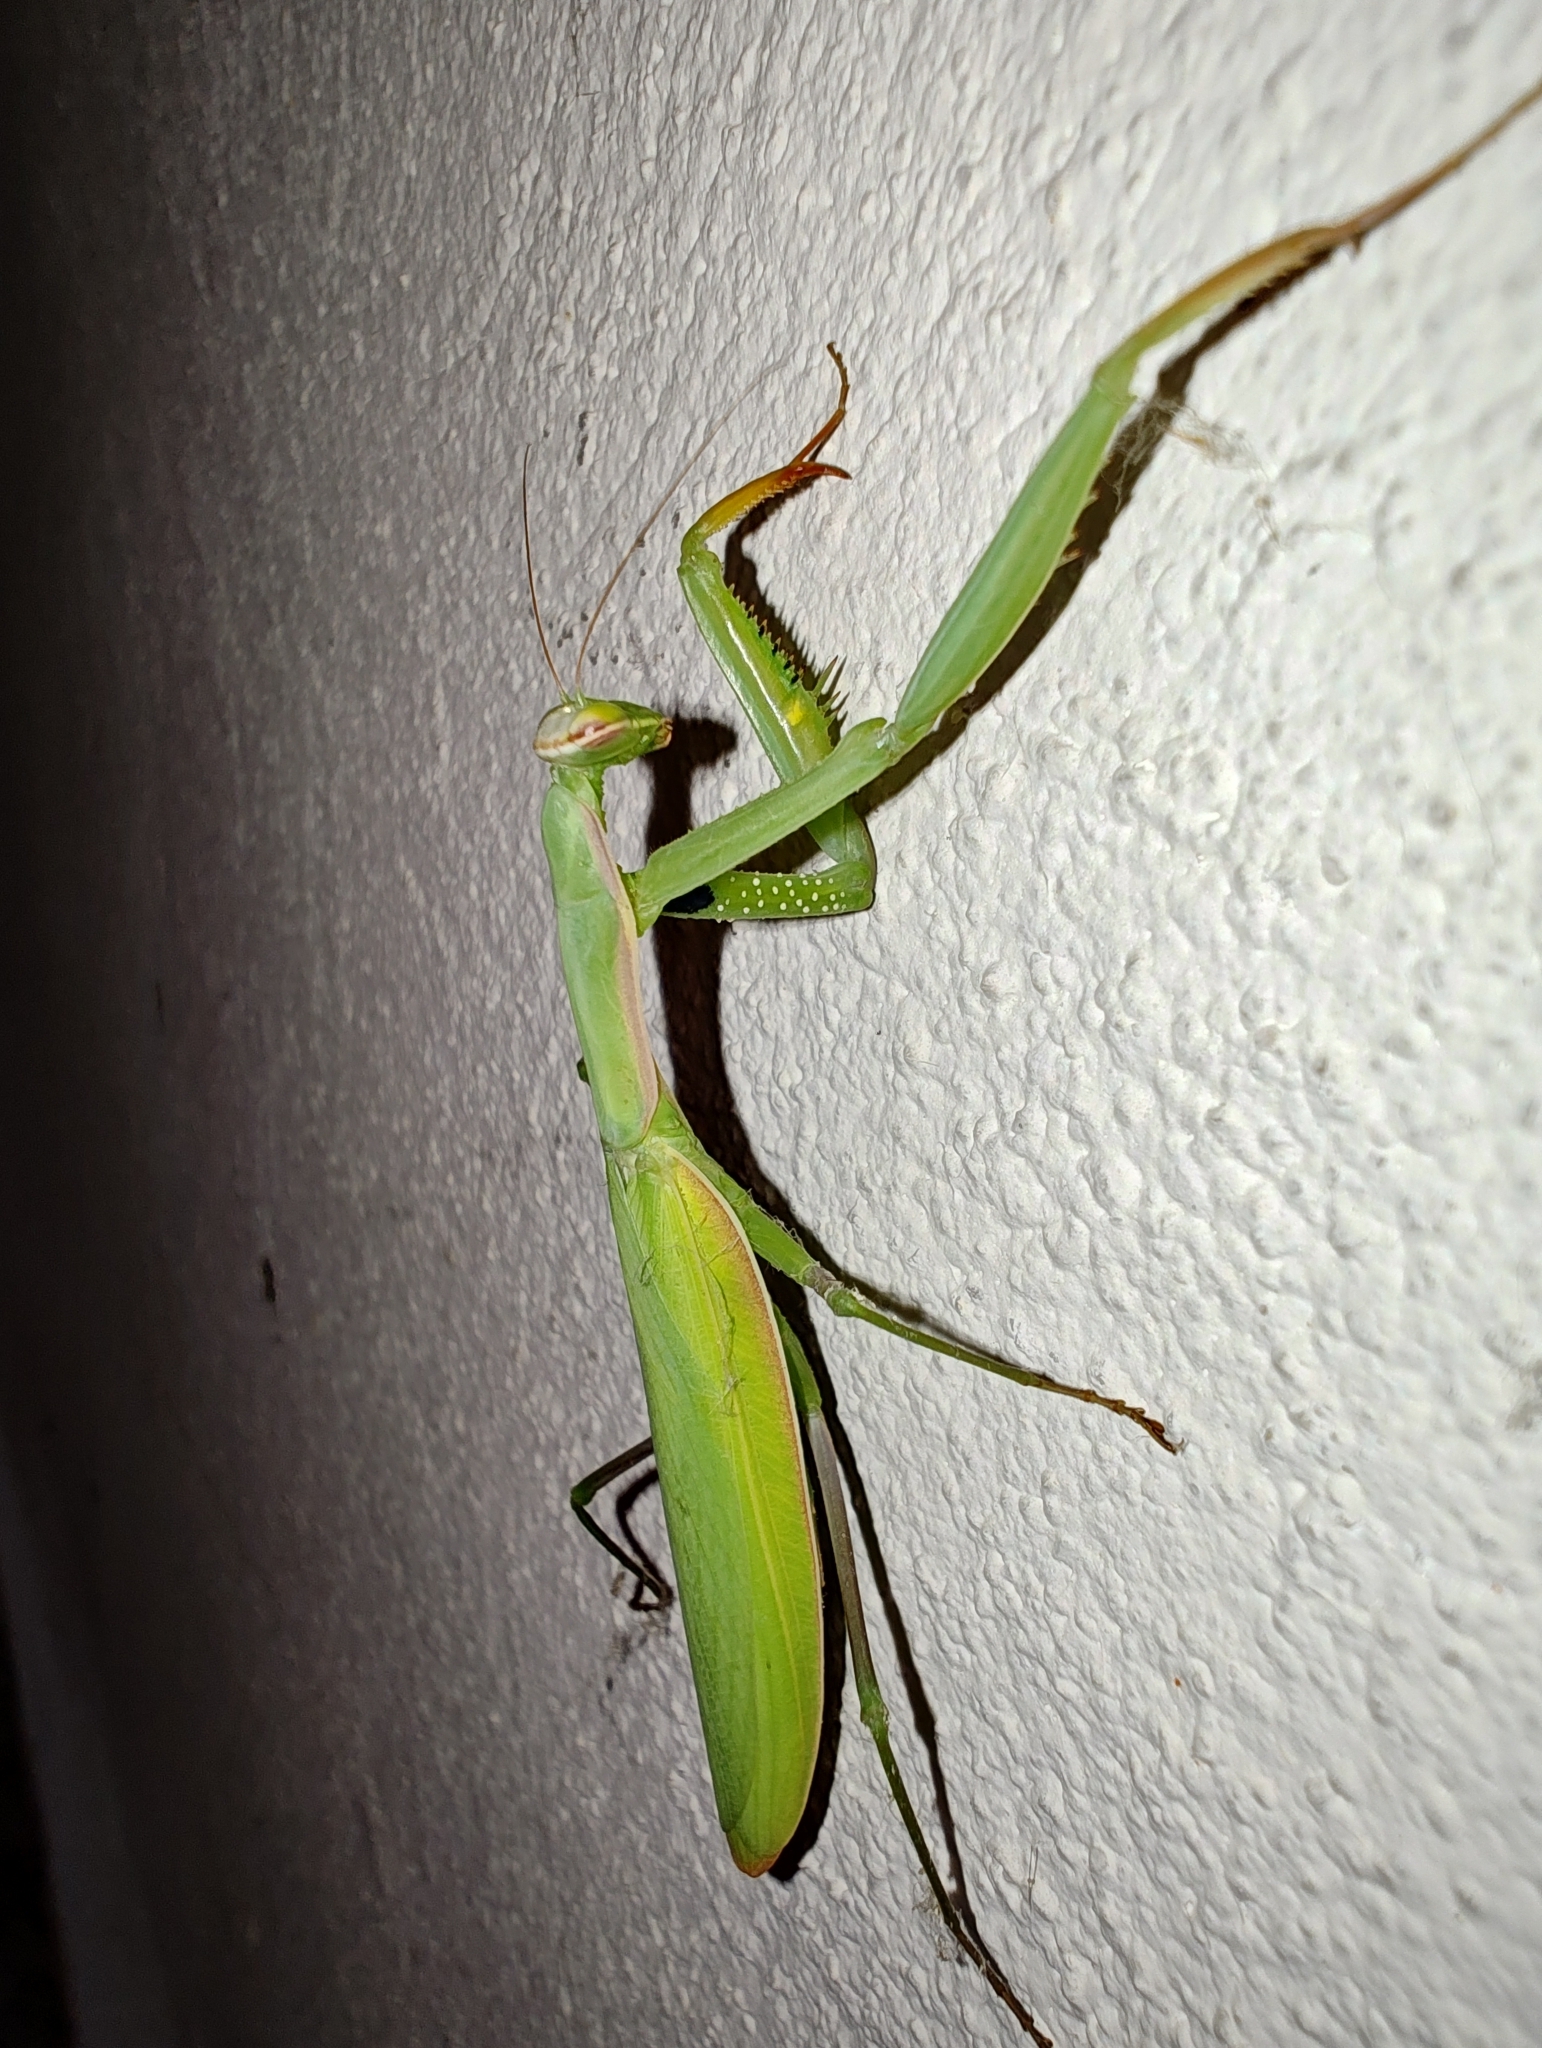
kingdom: Animalia
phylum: Arthropoda
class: Insecta
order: Mantodea
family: Mantidae
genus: Mantis
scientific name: Mantis religiosa
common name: Praying mantis
